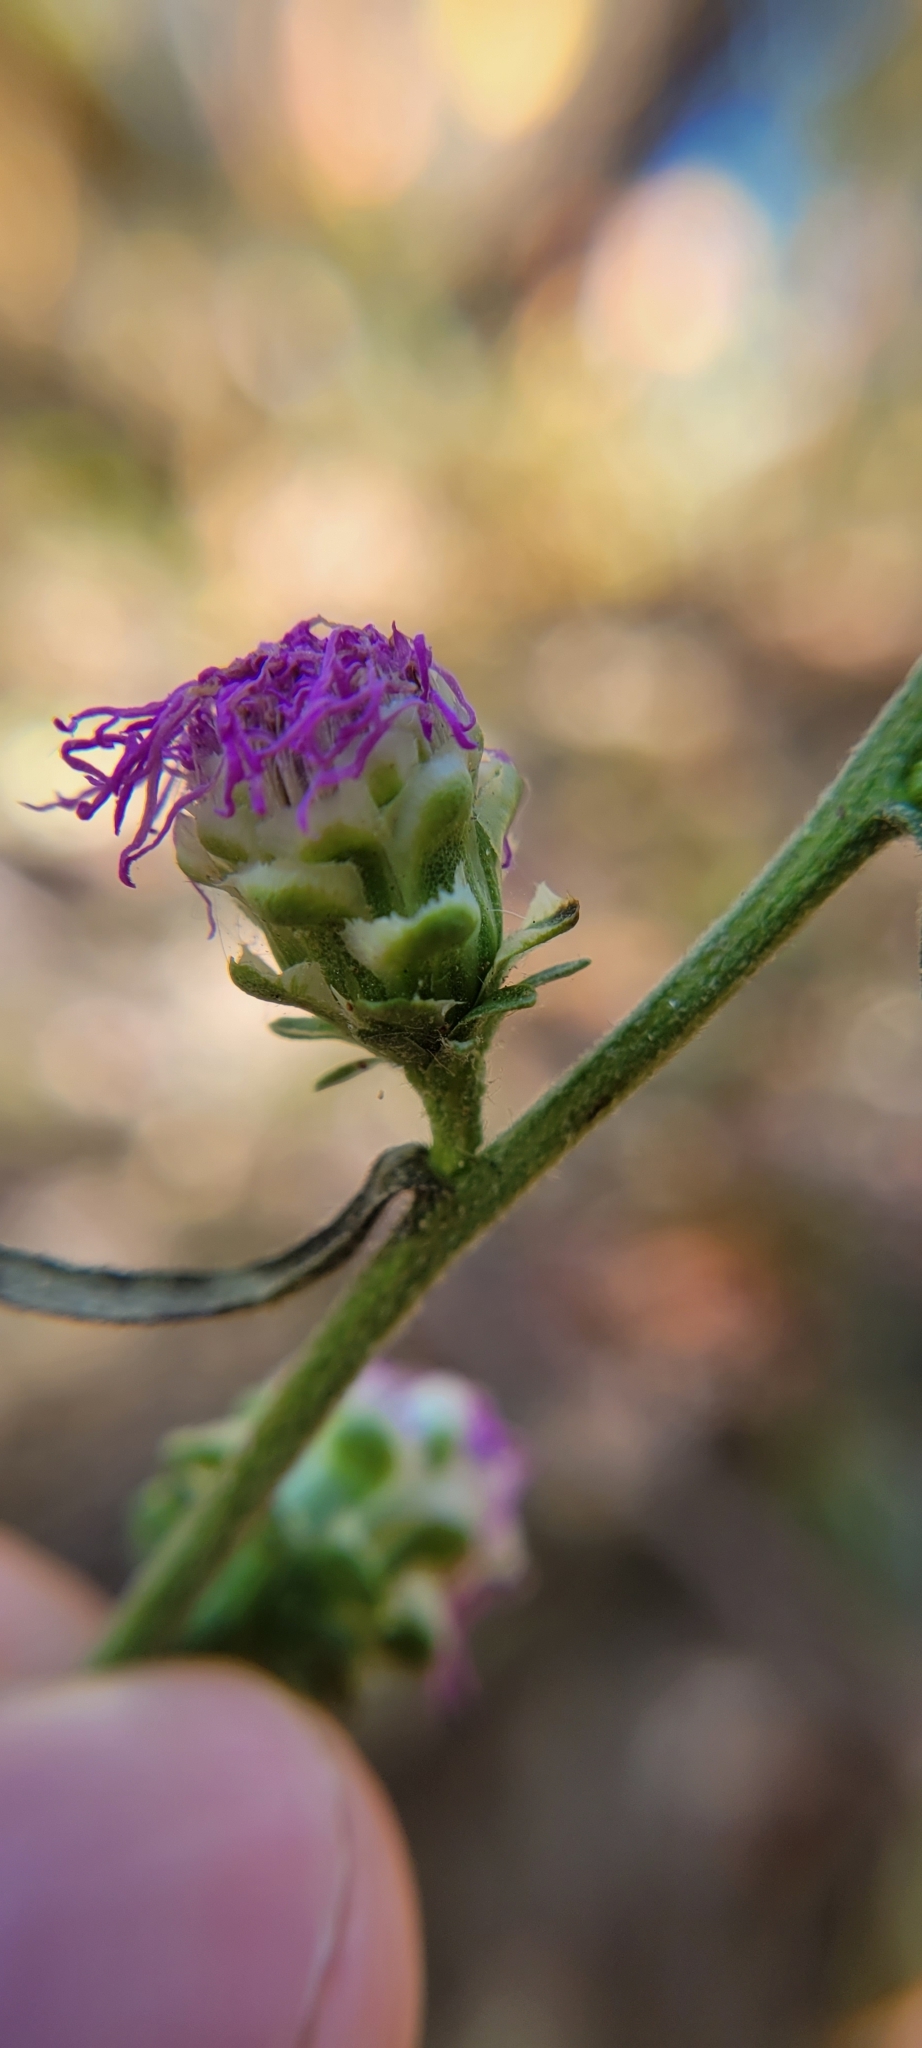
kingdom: Plantae
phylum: Tracheophyta
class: Magnoliopsida
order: Asterales
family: Asteraceae
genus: Liatris
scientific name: Liatris aspera
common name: Lacerate blazing-star
